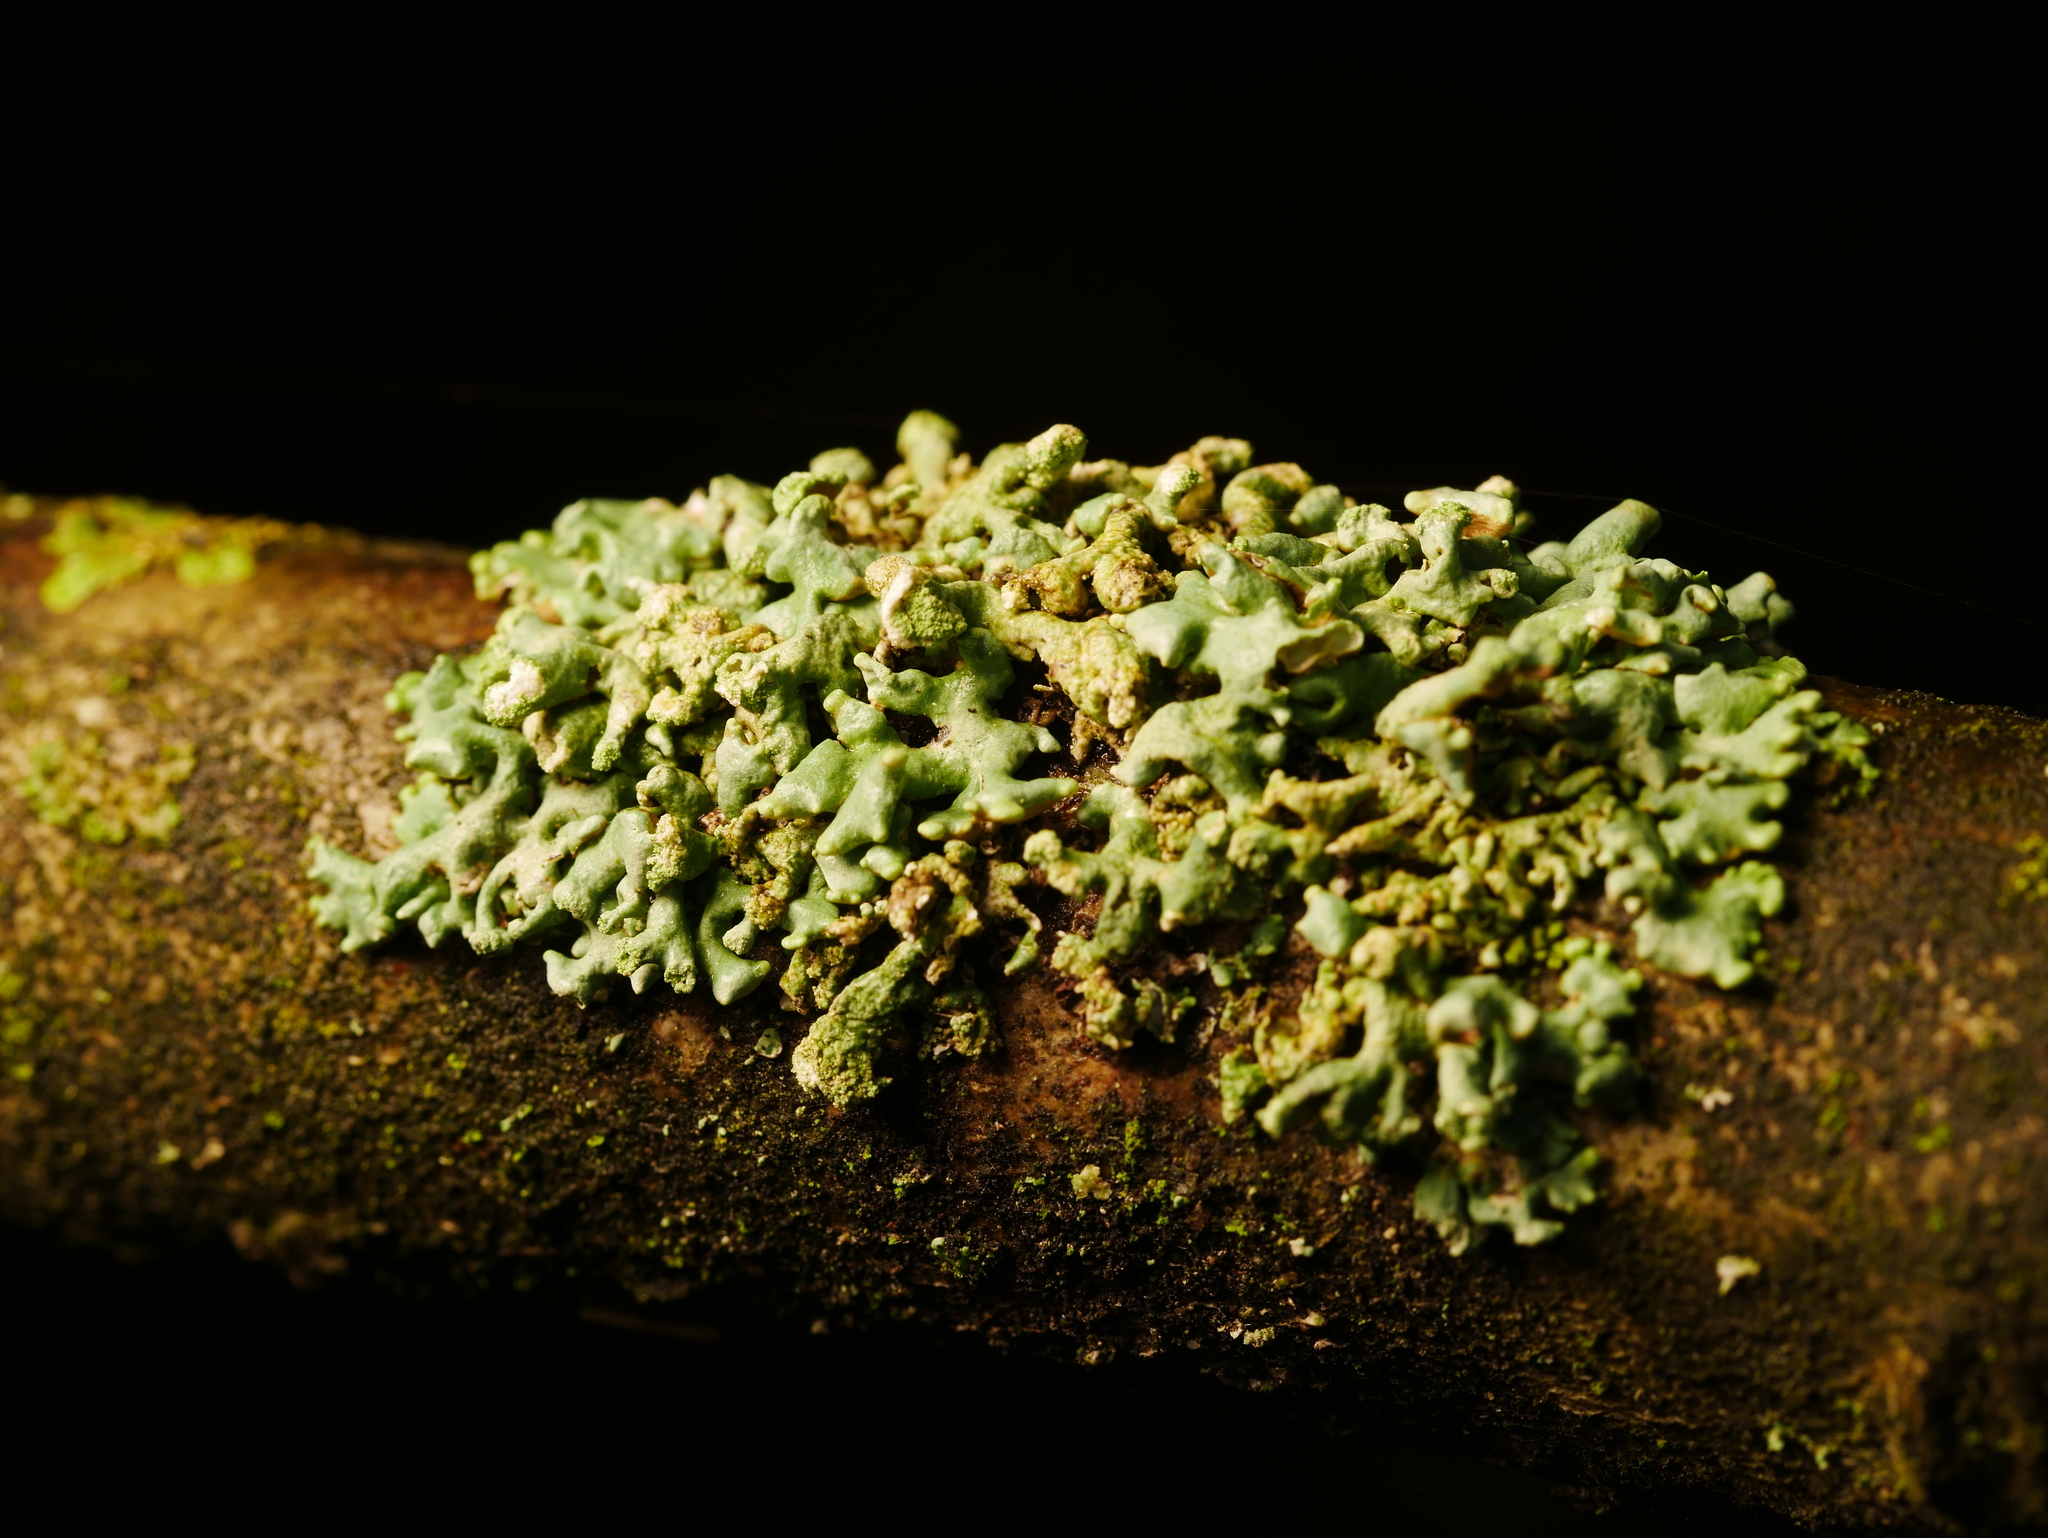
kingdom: Fungi
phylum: Ascomycota
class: Lecanoromycetes
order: Lecanorales
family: Parmeliaceae
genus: Hypogymnia
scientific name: Hypogymnia tubulosa
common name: Powder-headed tube lichen
